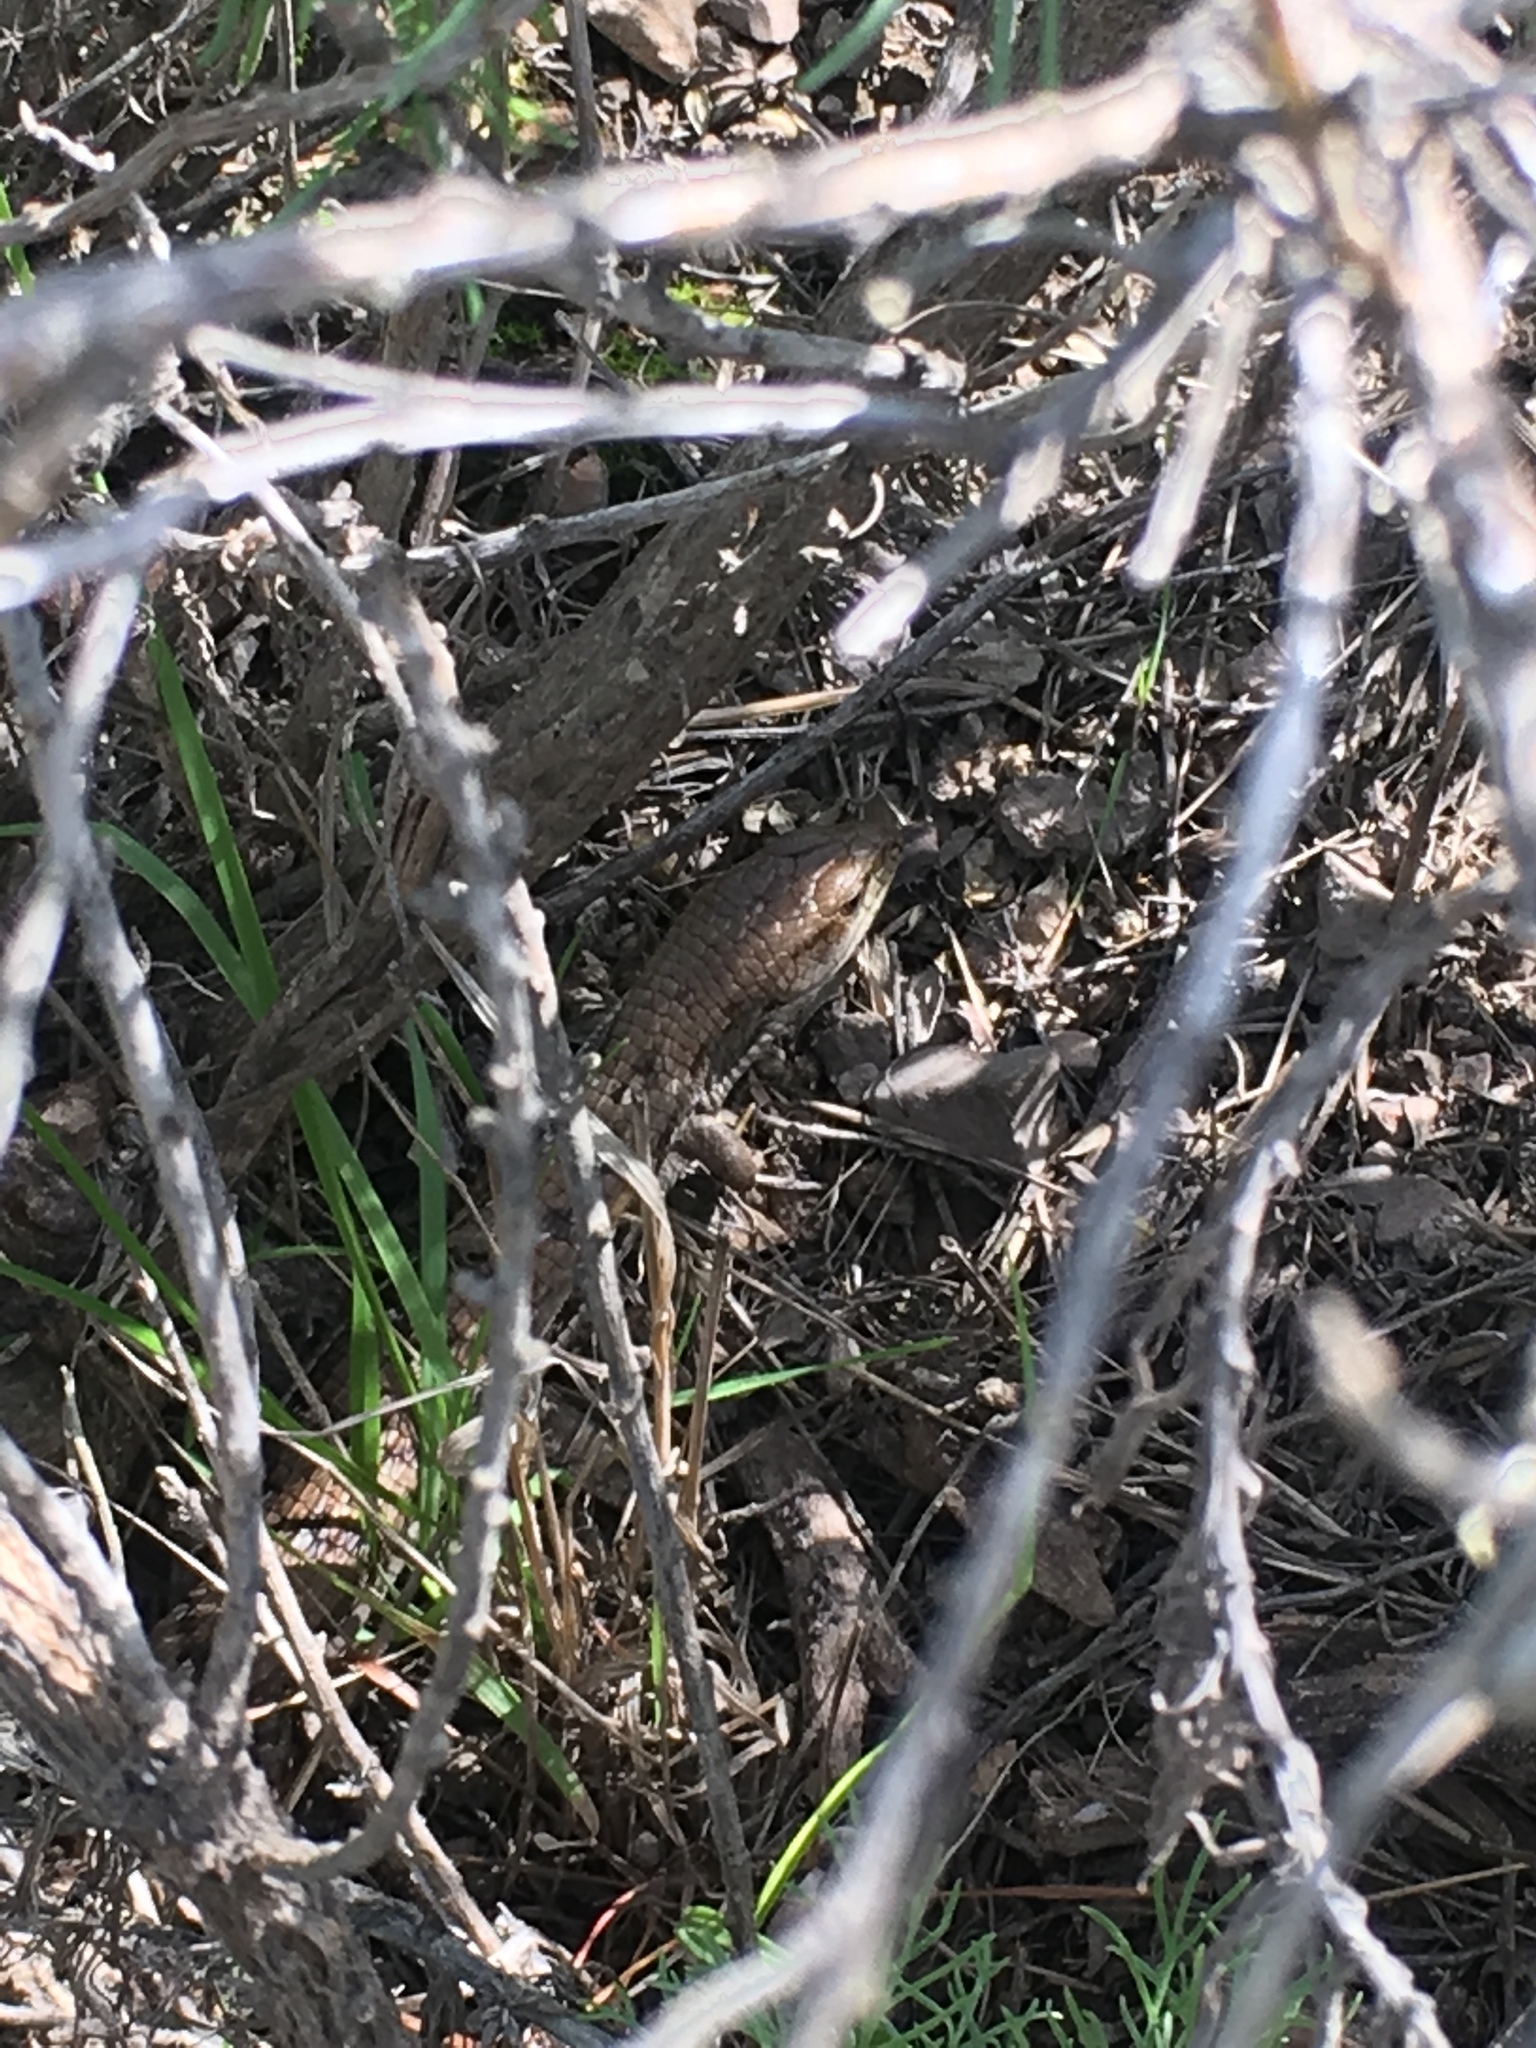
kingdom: Animalia
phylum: Chordata
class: Squamata
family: Anguidae
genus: Elgaria
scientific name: Elgaria multicarinata
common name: Southern alligator lizard
